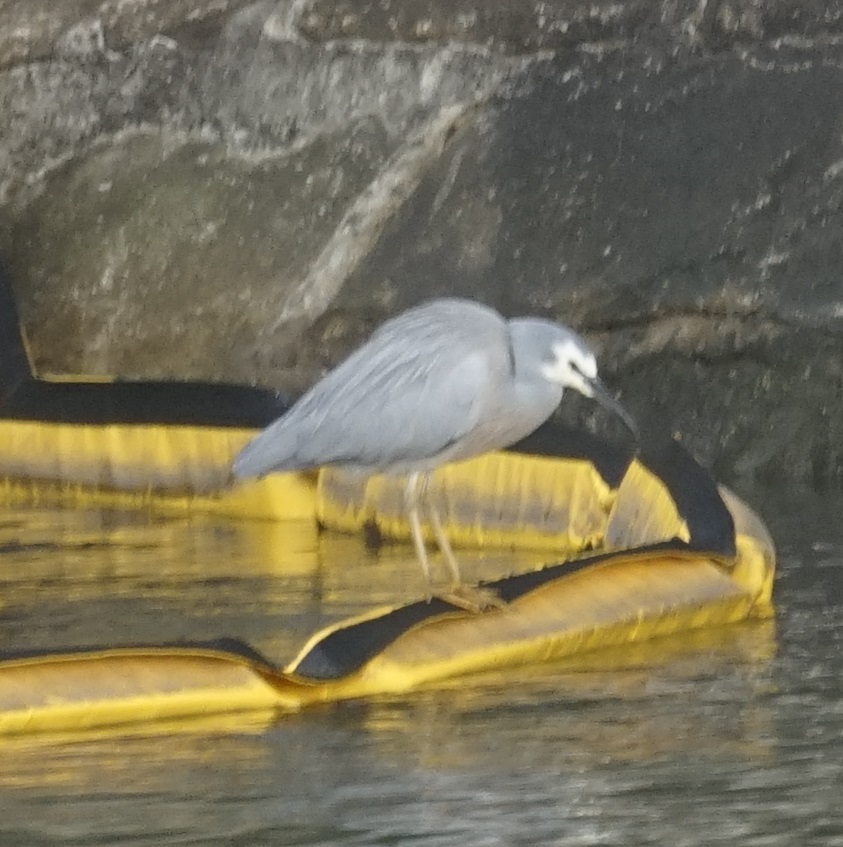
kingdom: Animalia
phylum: Chordata
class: Aves
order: Pelecaniformes
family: Ardeidae
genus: Egretta
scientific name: Egretta novaehollandiae
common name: White-faced heron
